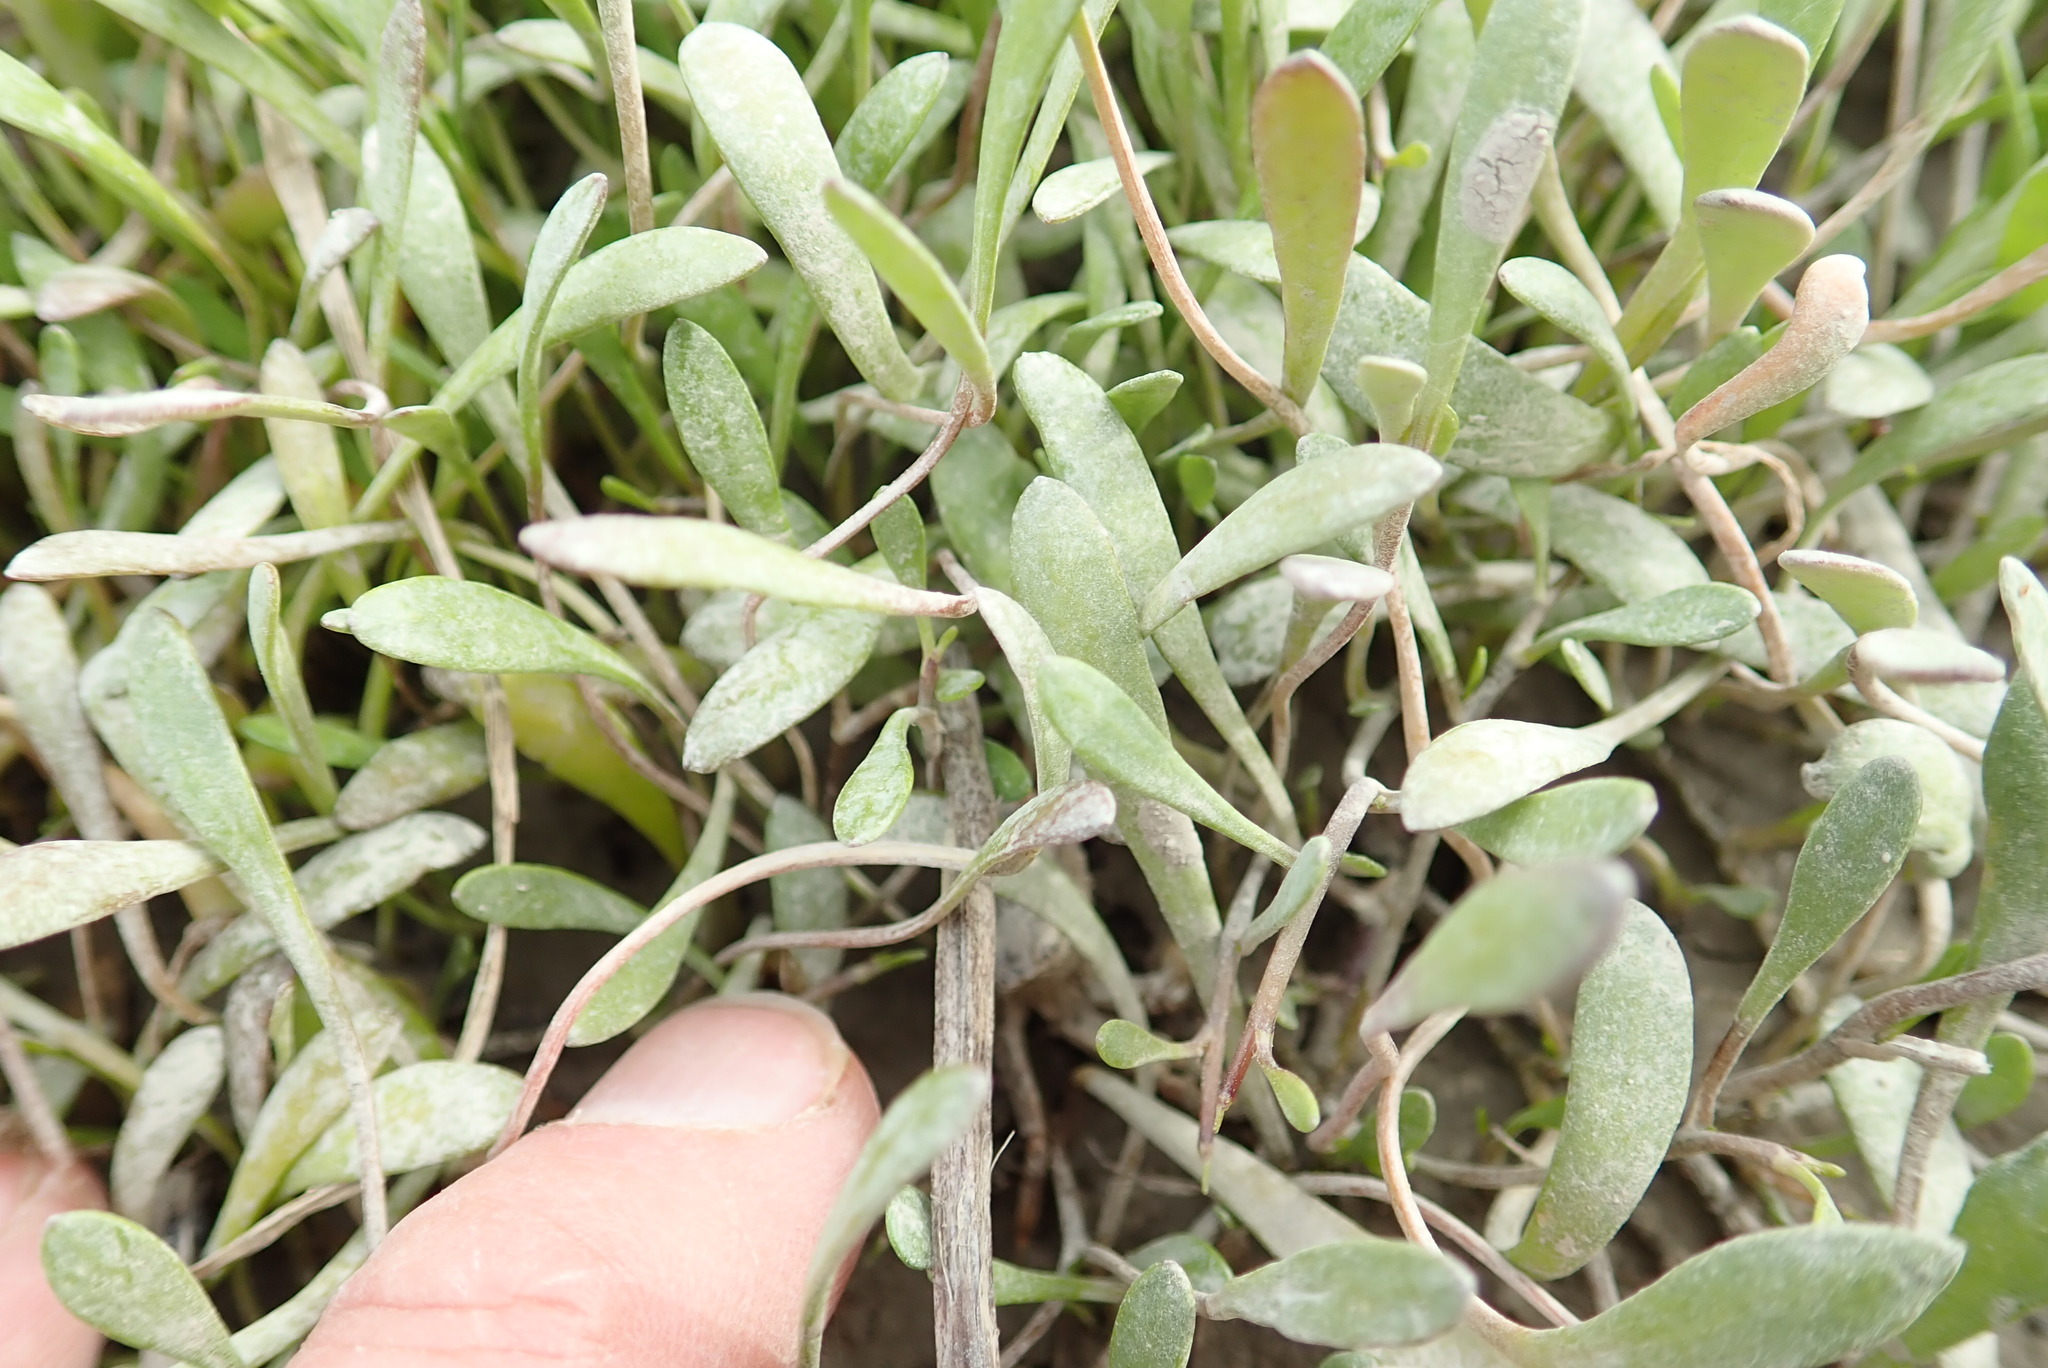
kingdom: Plantae
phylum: Tracheophyta
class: Magnoliopsida
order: Asterales
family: Goodeniaceae
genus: Goodenia
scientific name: Goodenia radicans
